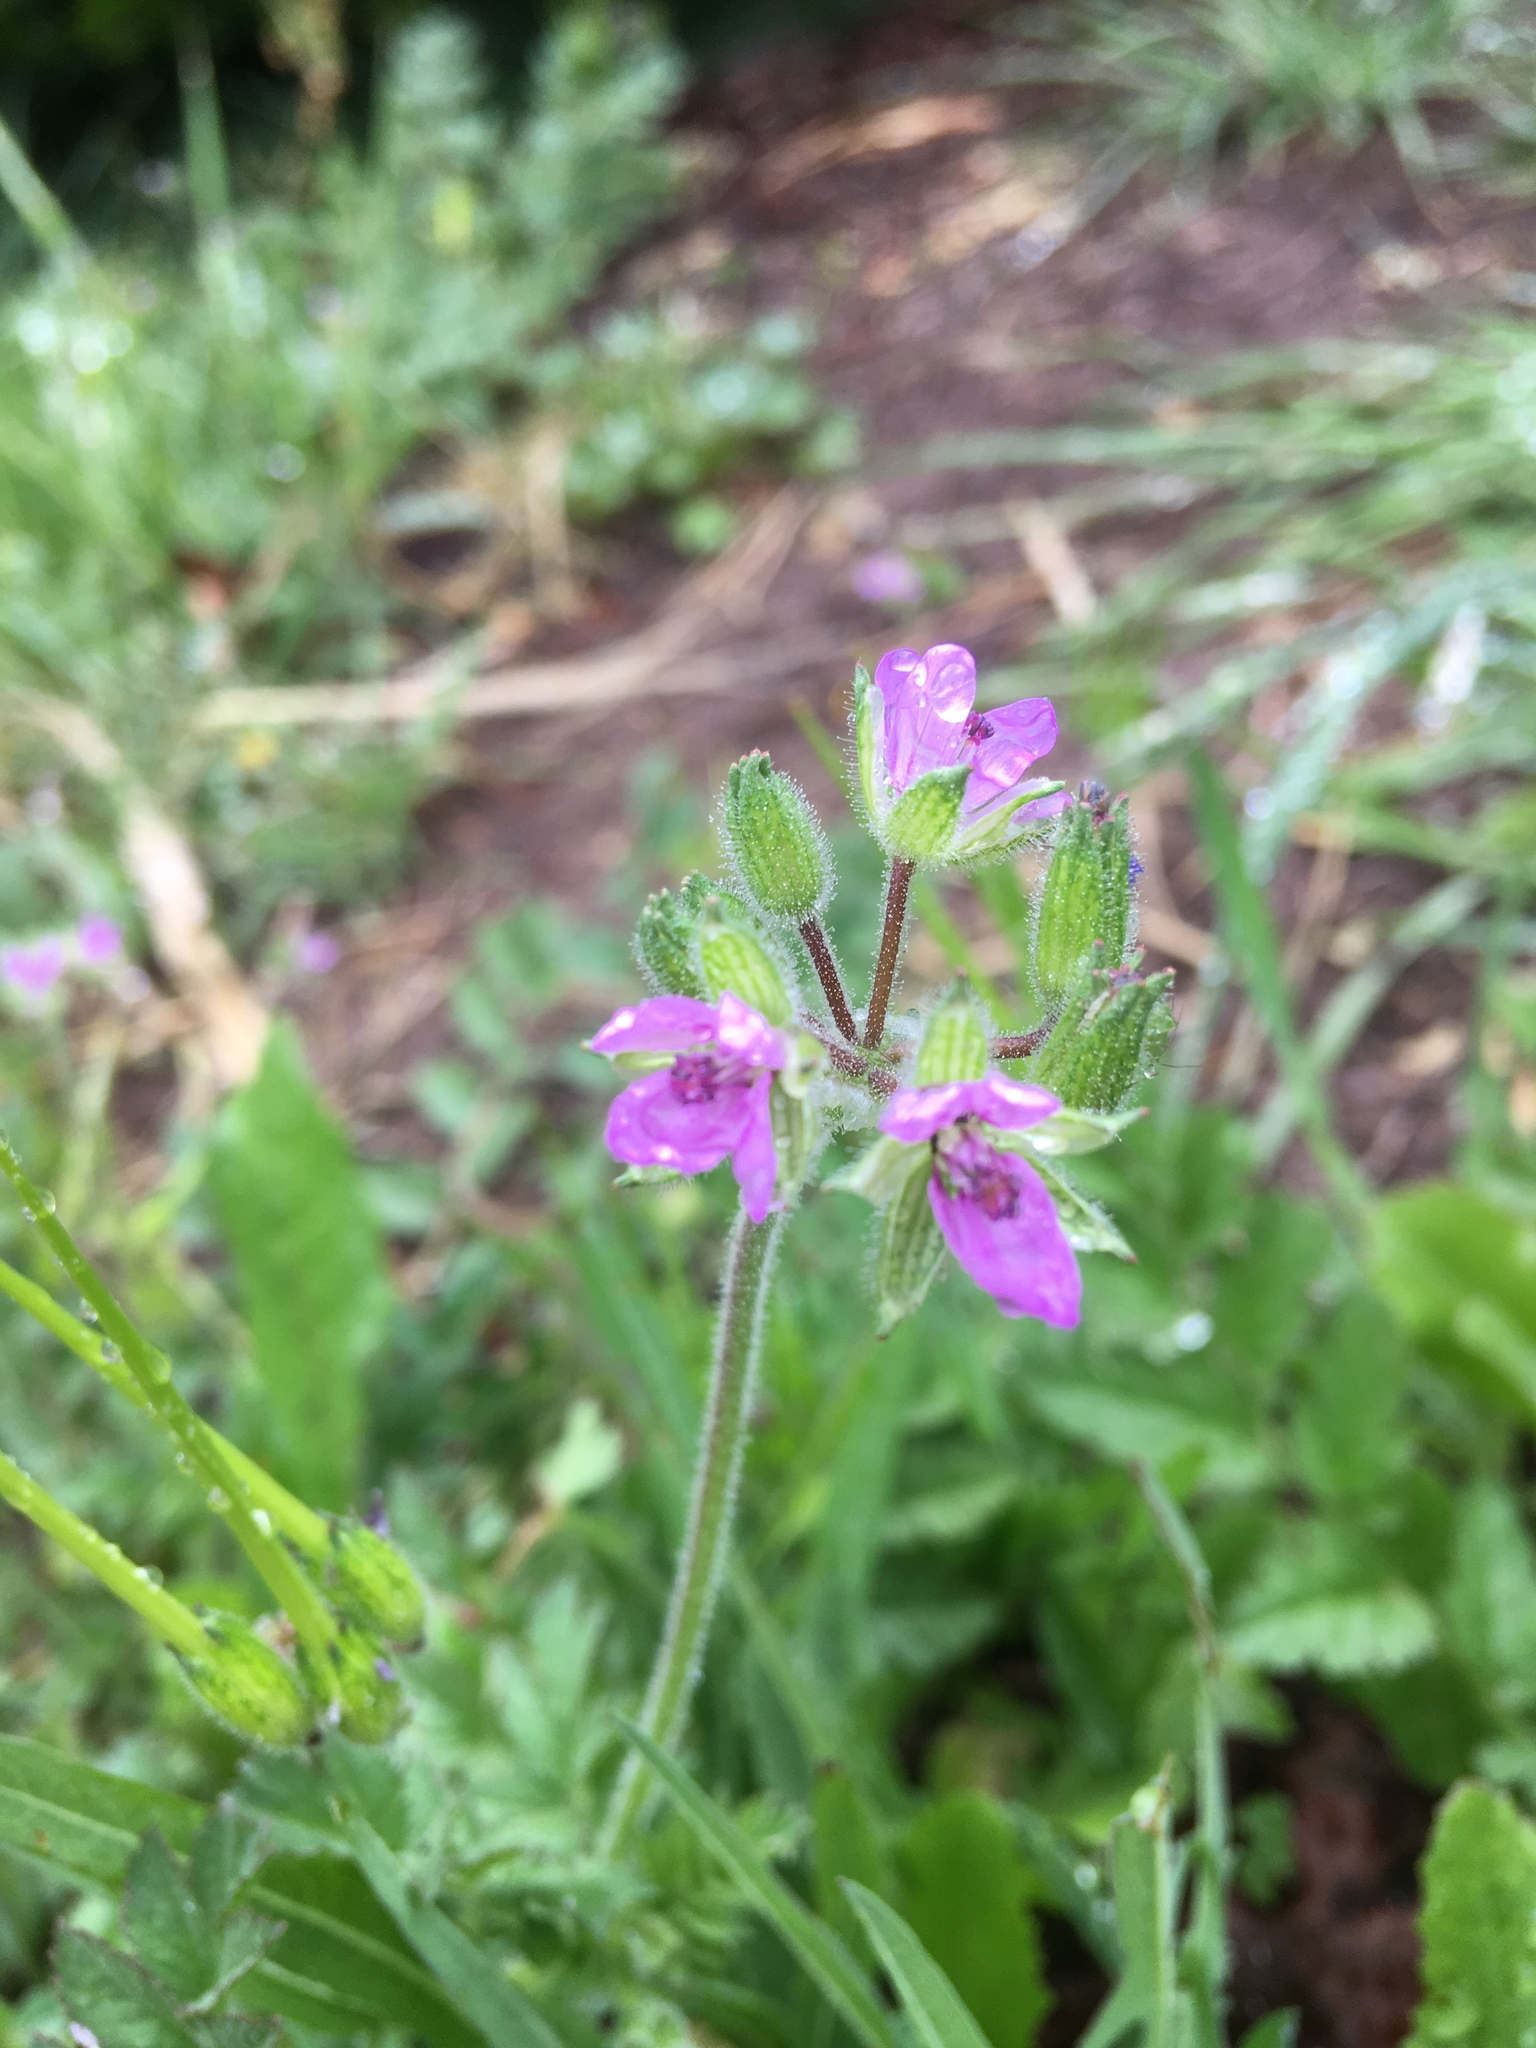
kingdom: Plantae
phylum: Tracheophyta
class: Magnoliopsida
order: Geraniales
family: Geraniaceae
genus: Erodium
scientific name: Erodium moschatum
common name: Musk stork's-bill
